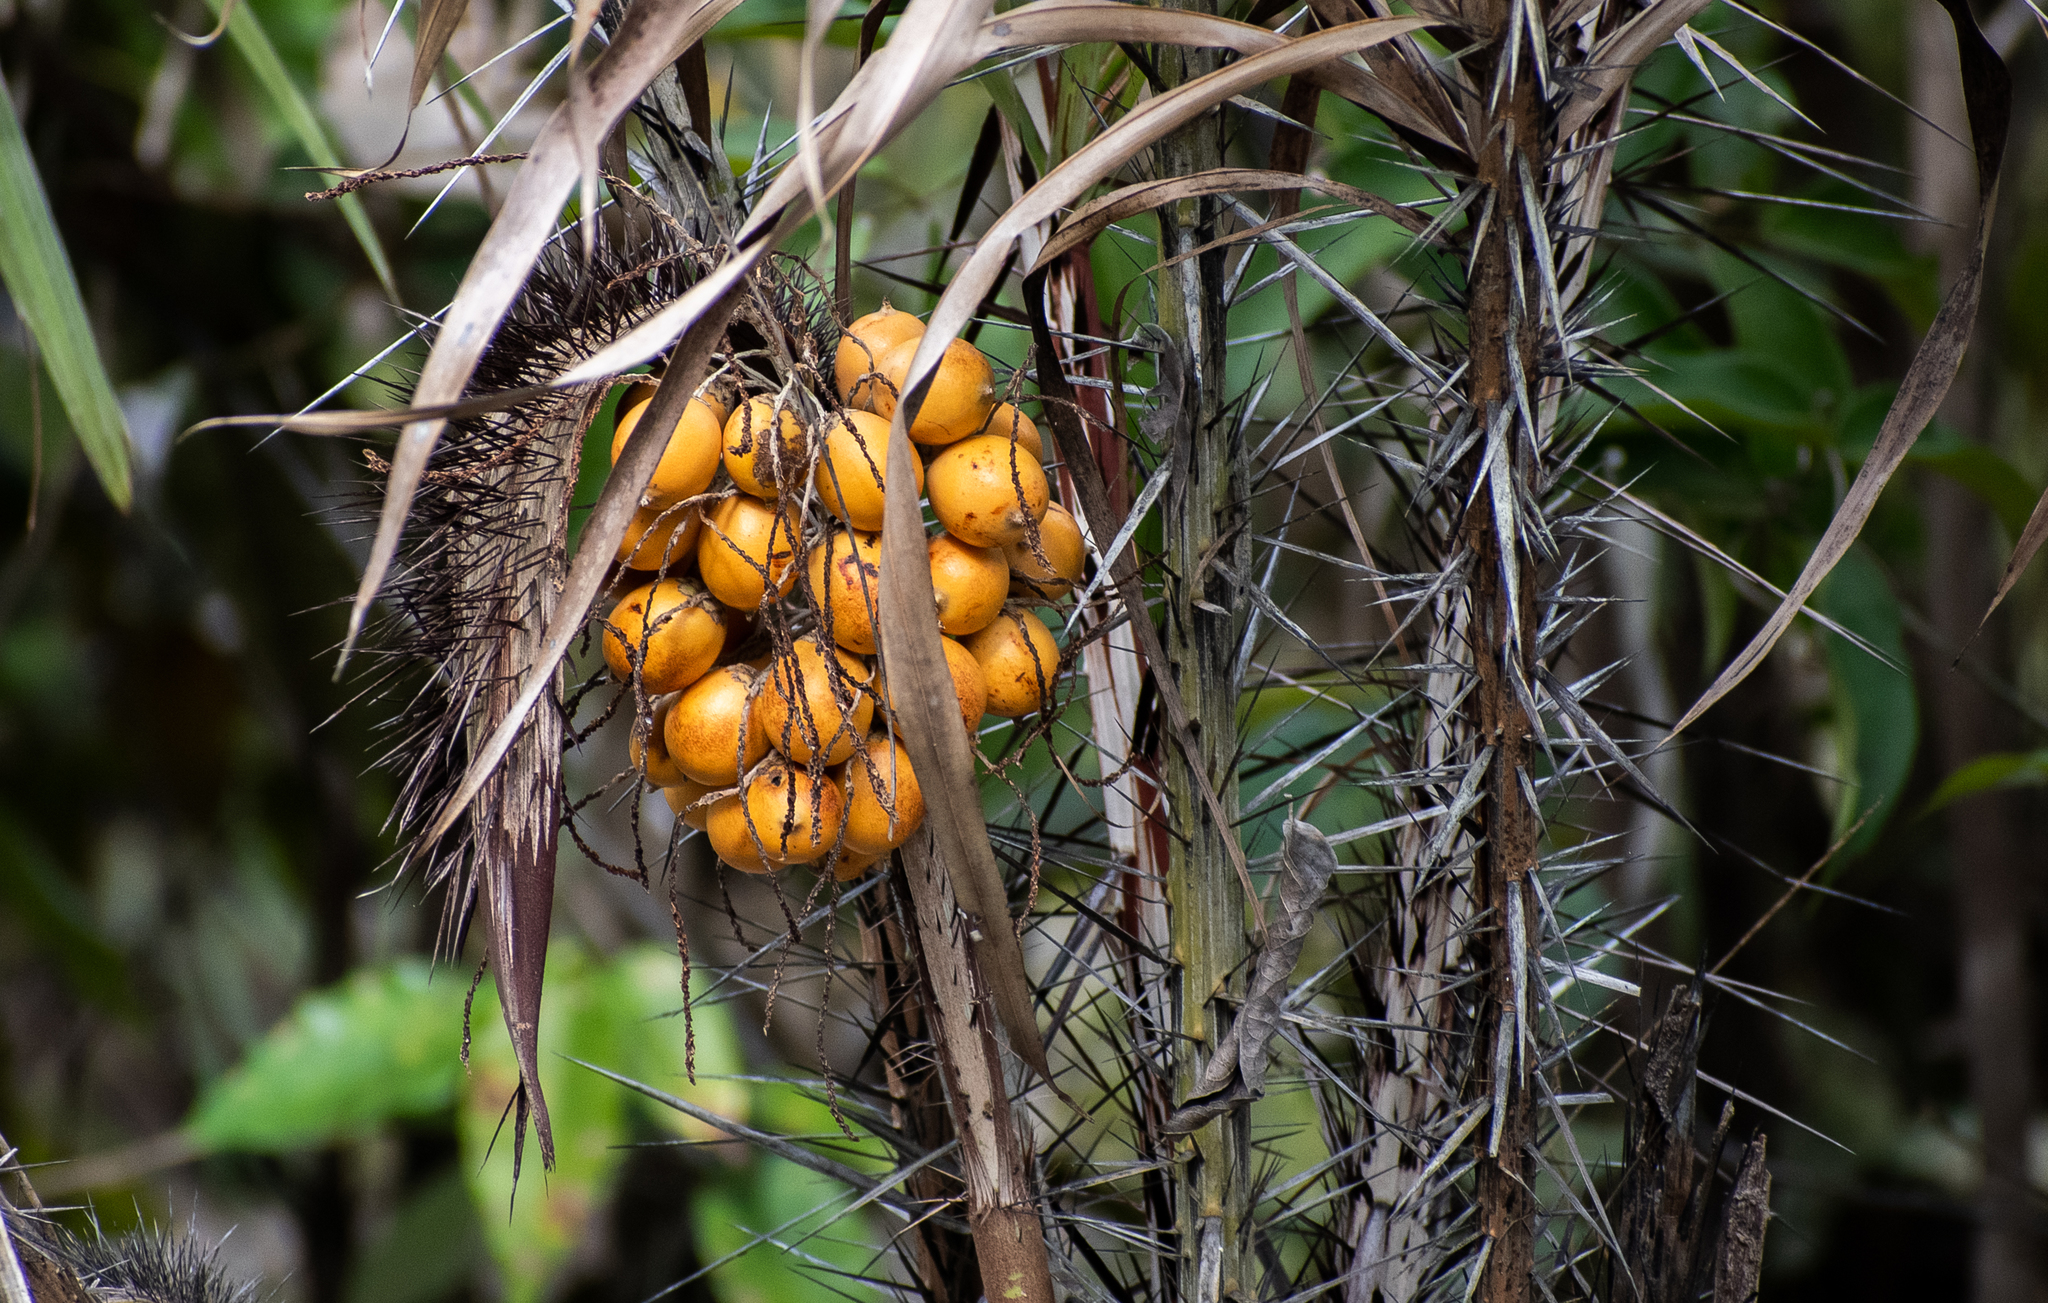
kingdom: Plantae
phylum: Tracheophyta
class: Liliopsida
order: Arecales
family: Arecaceae
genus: Astrocaryum
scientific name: Astrocaryum acaule
